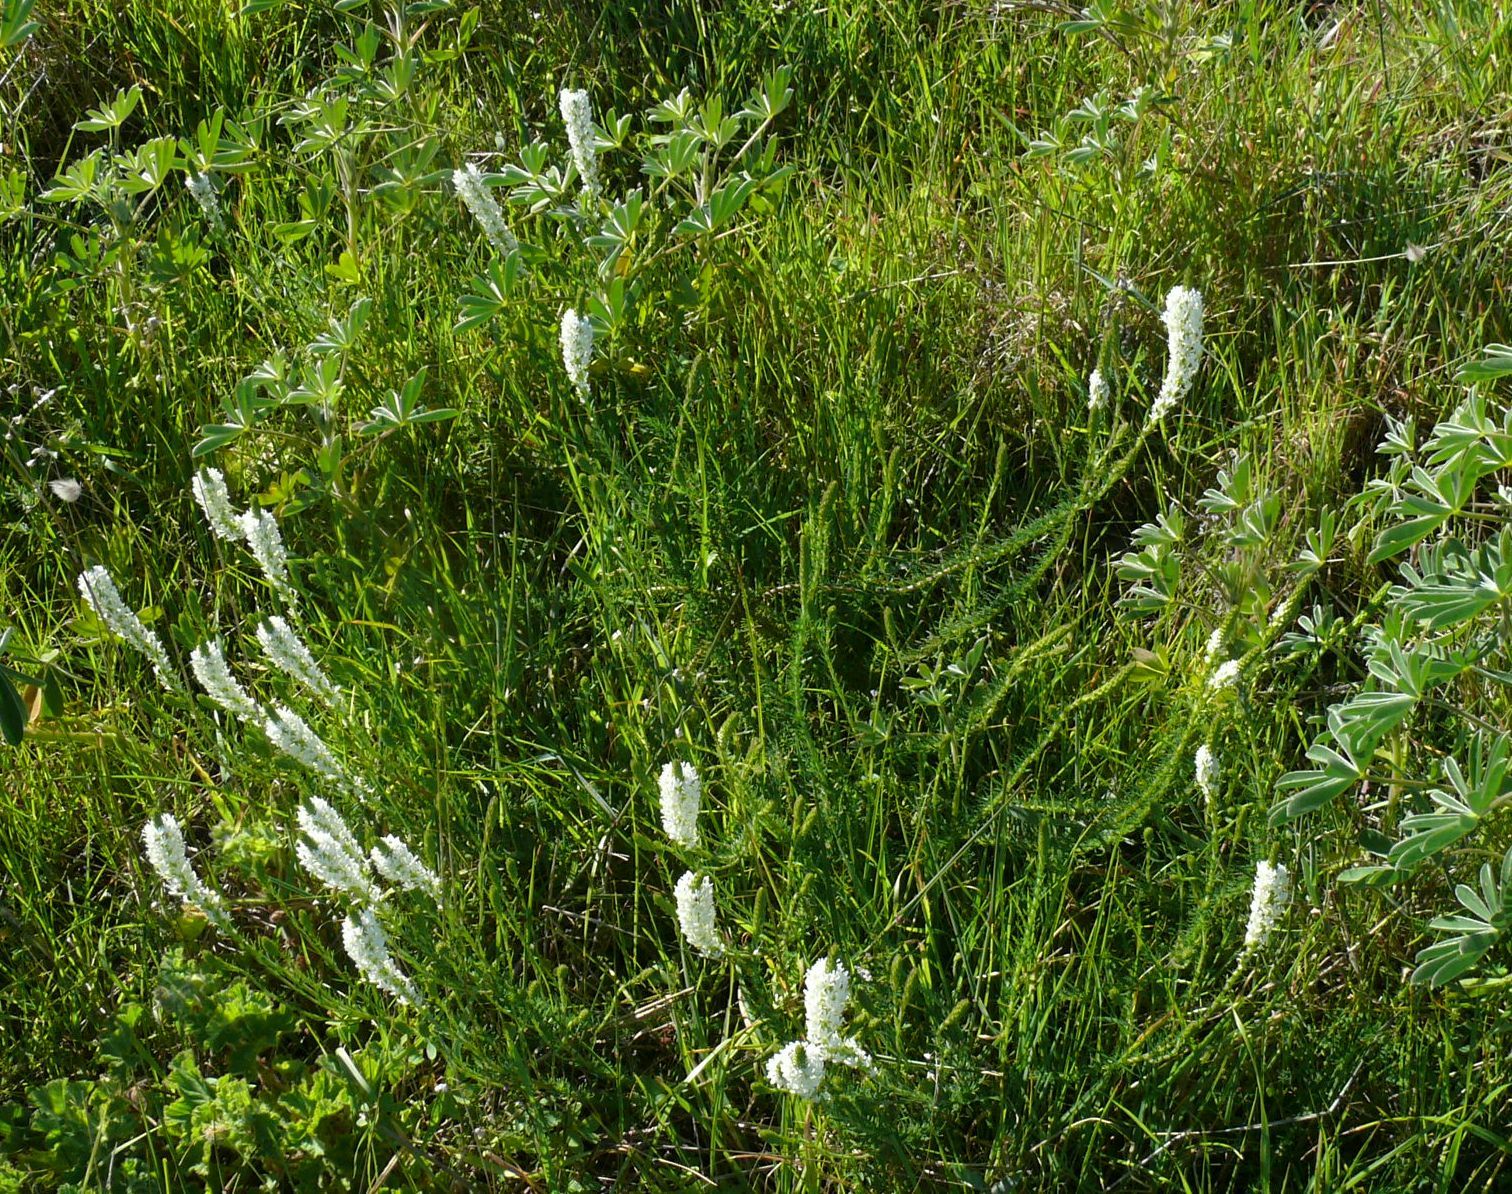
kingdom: Plantae
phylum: Tracheophyta
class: Magnoliopsida
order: Lamiales
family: Scrophulariaceae
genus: Dischisma
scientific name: Dischisma ciliatum
